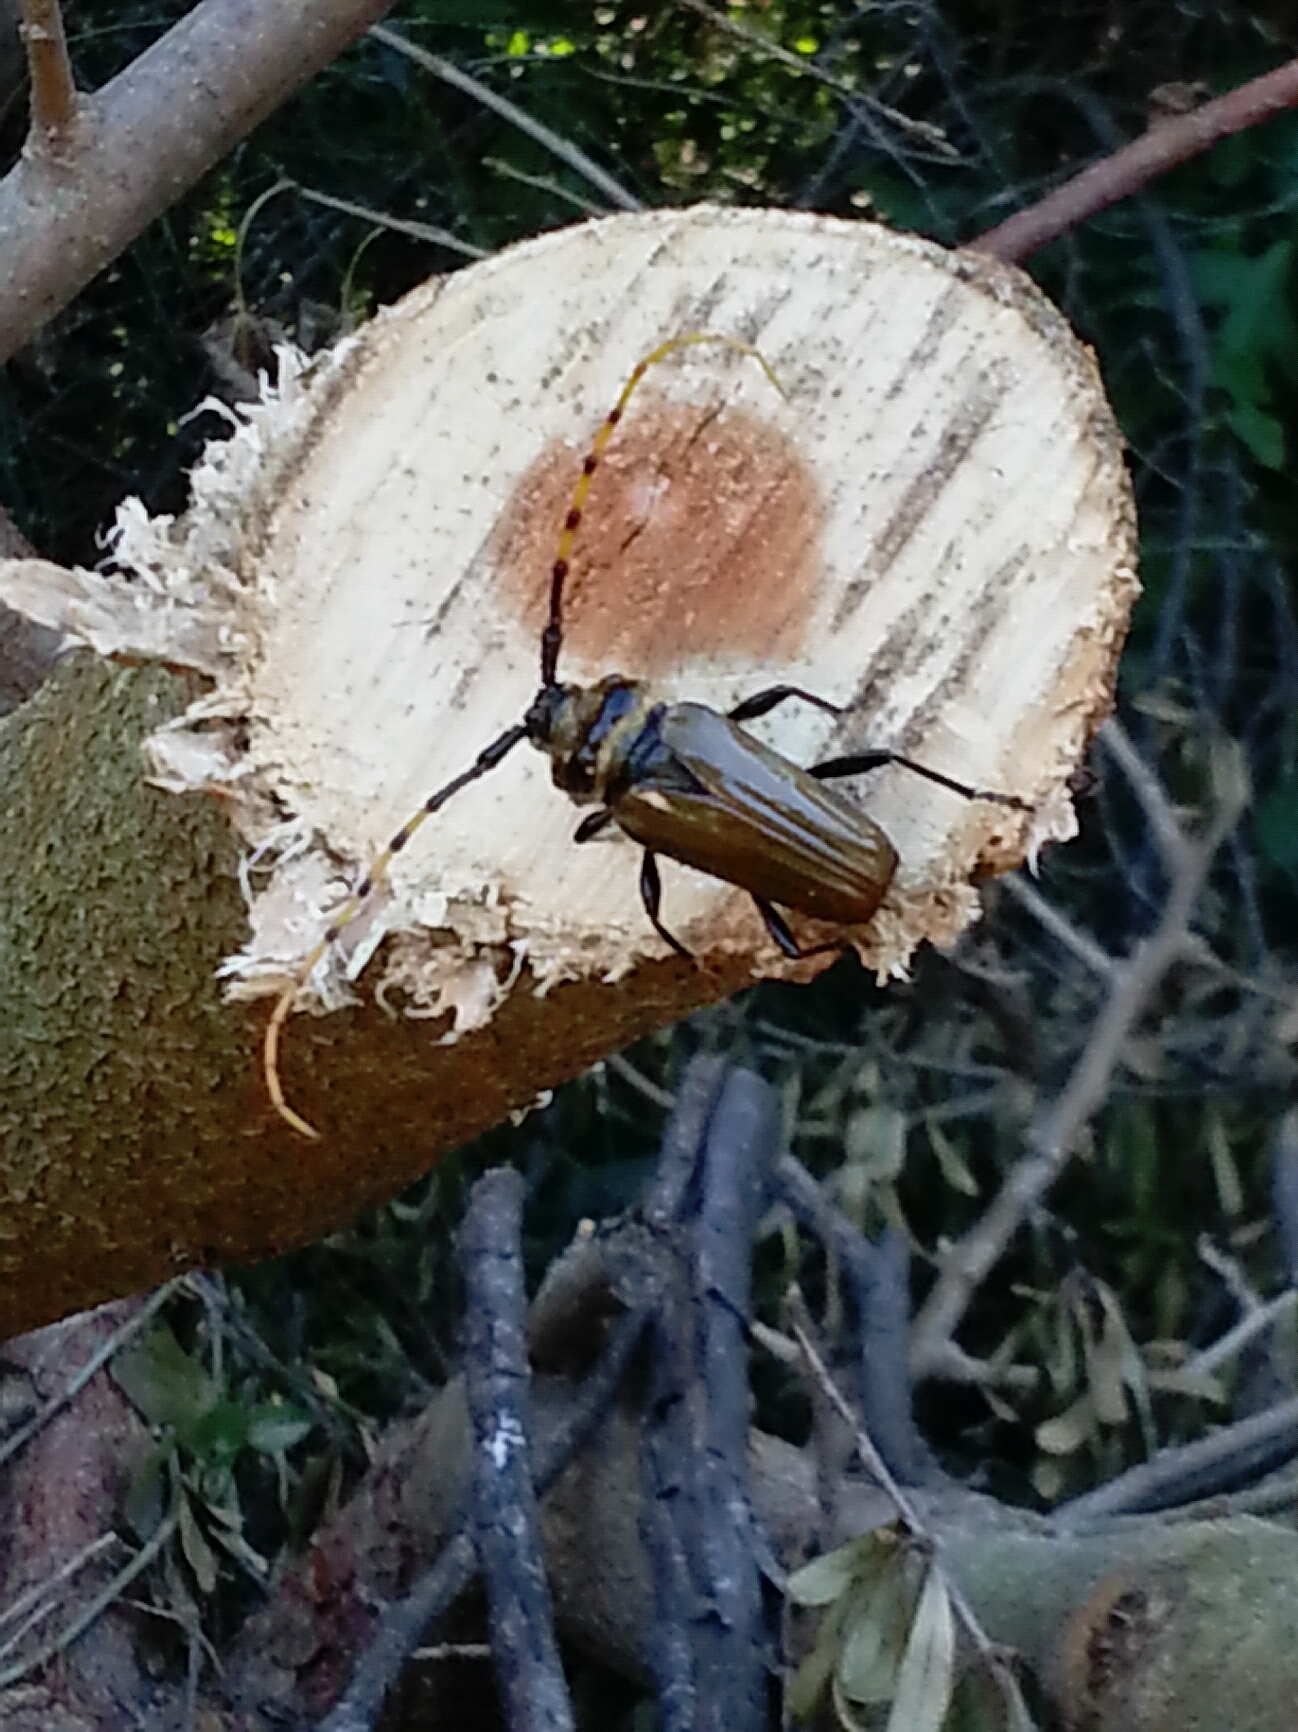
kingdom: Animalia
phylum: Arthropoda
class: Insecta
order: Coleoptera
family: Cerambycidae
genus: Retrachydes
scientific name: Retrachydes thoracicus
